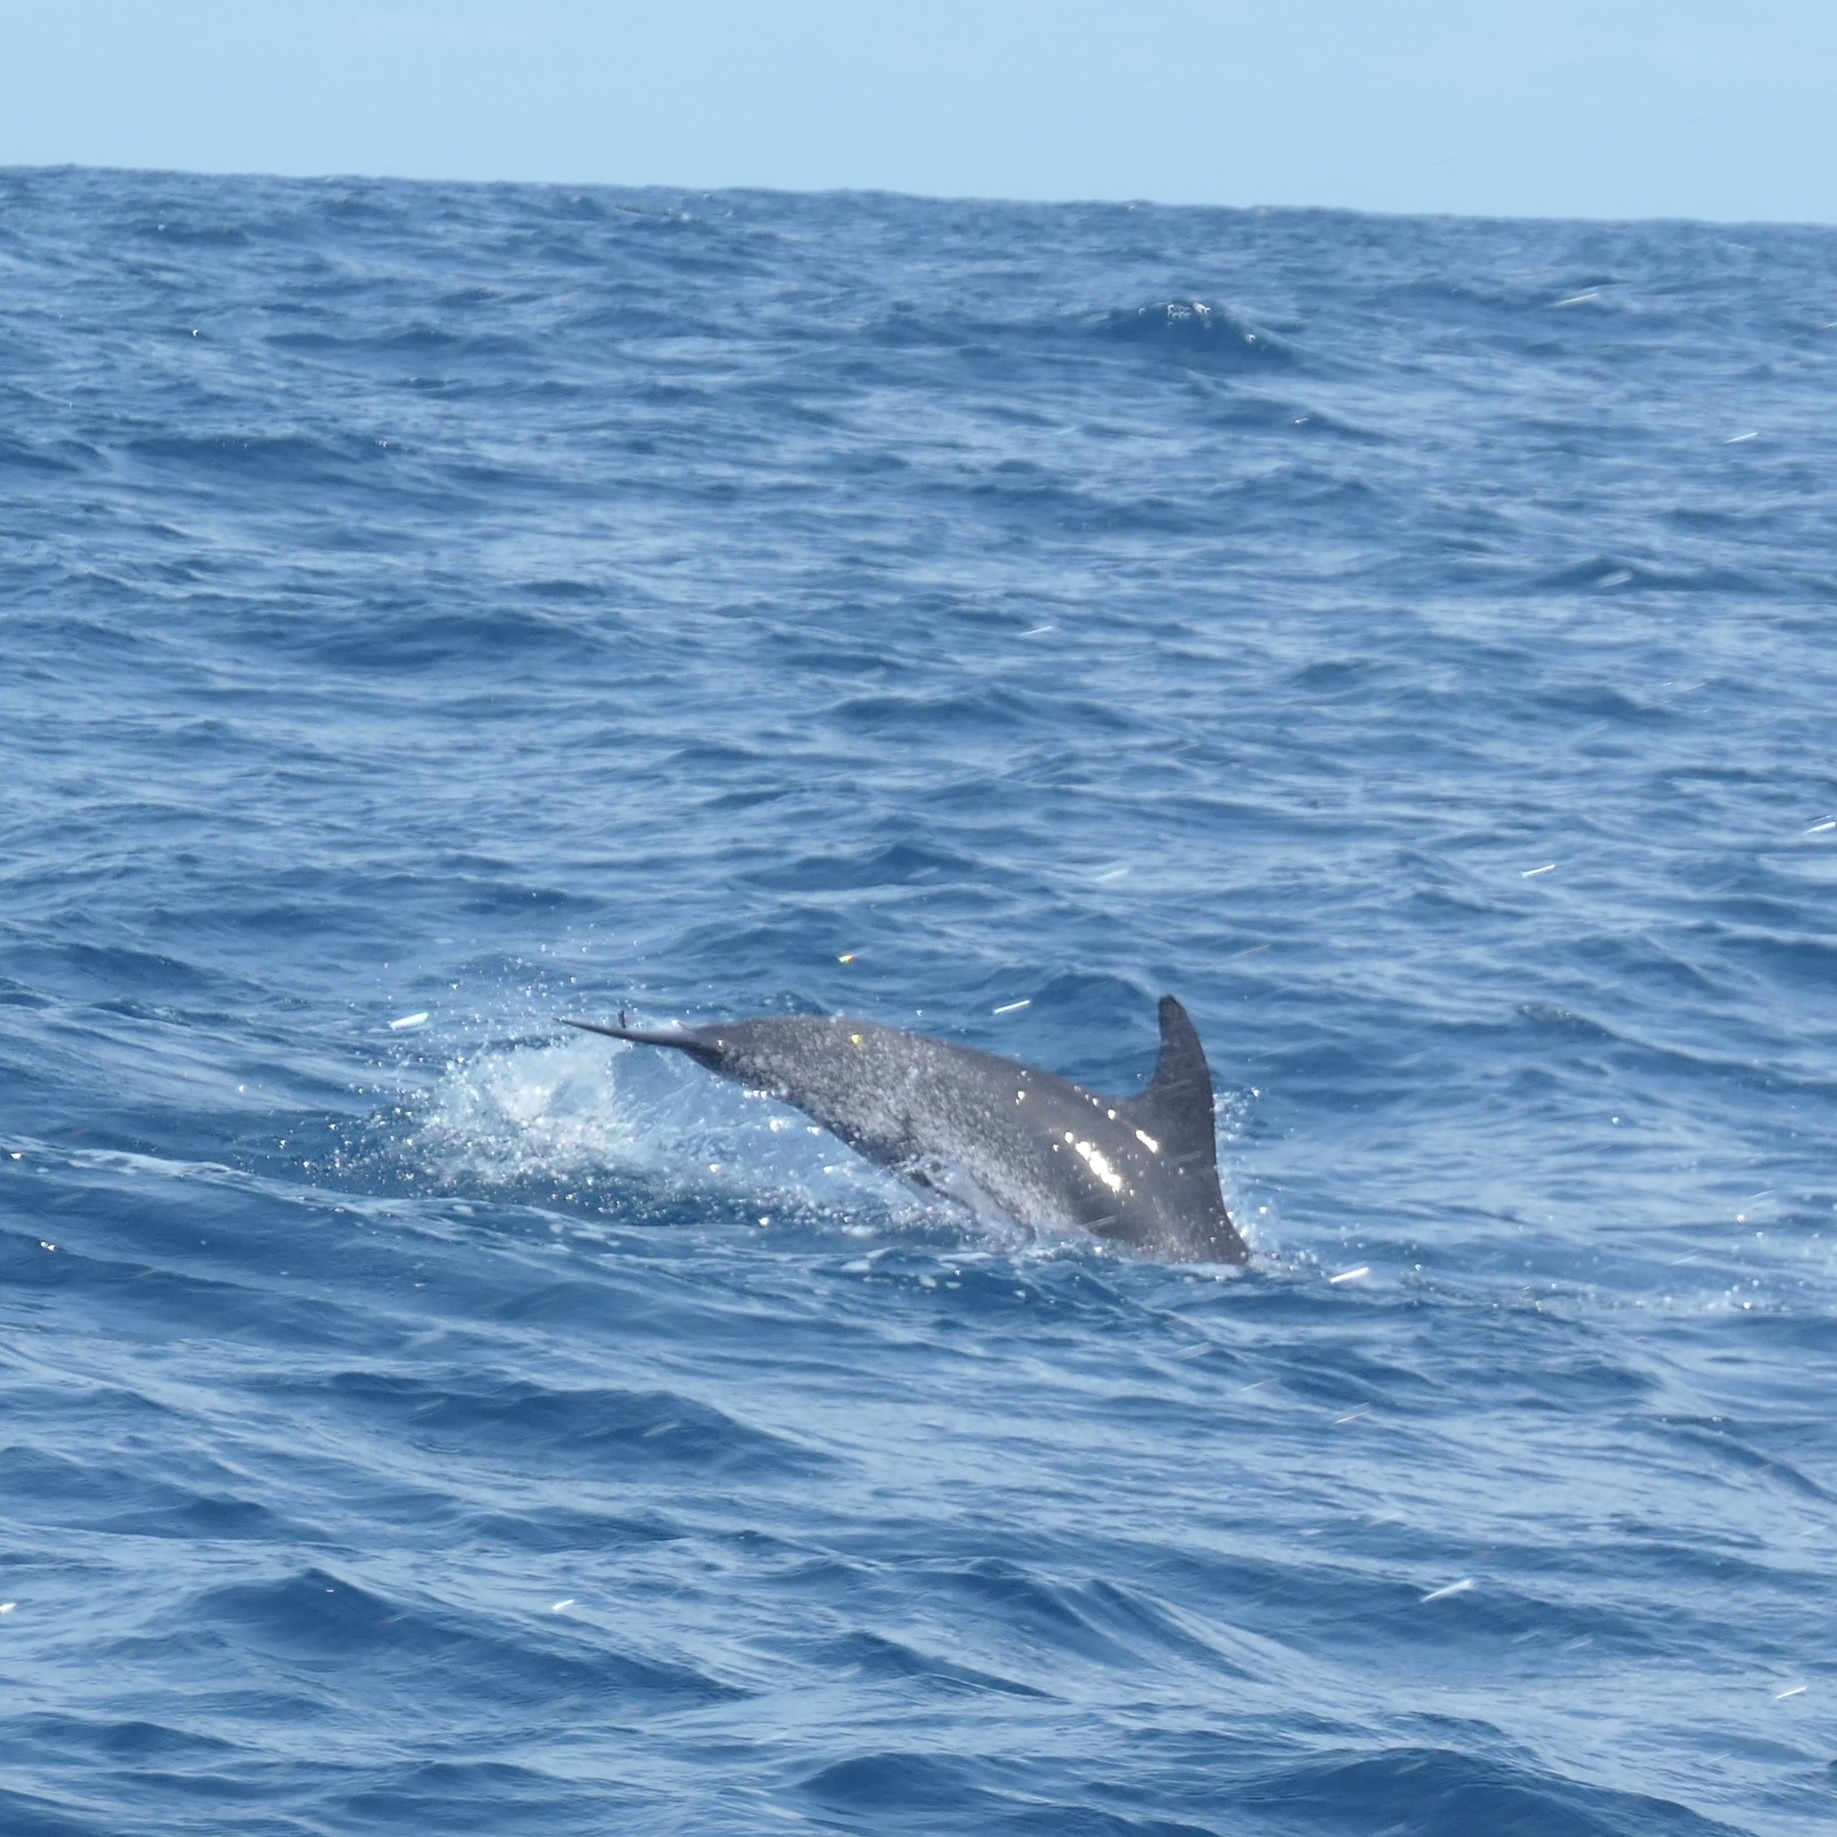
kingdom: Animalia
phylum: Chordata
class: Mammalia
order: Cetacea
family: Delphinidae
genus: Stenella
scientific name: Stenella frontalis
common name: Atlantic spotted dolphin
